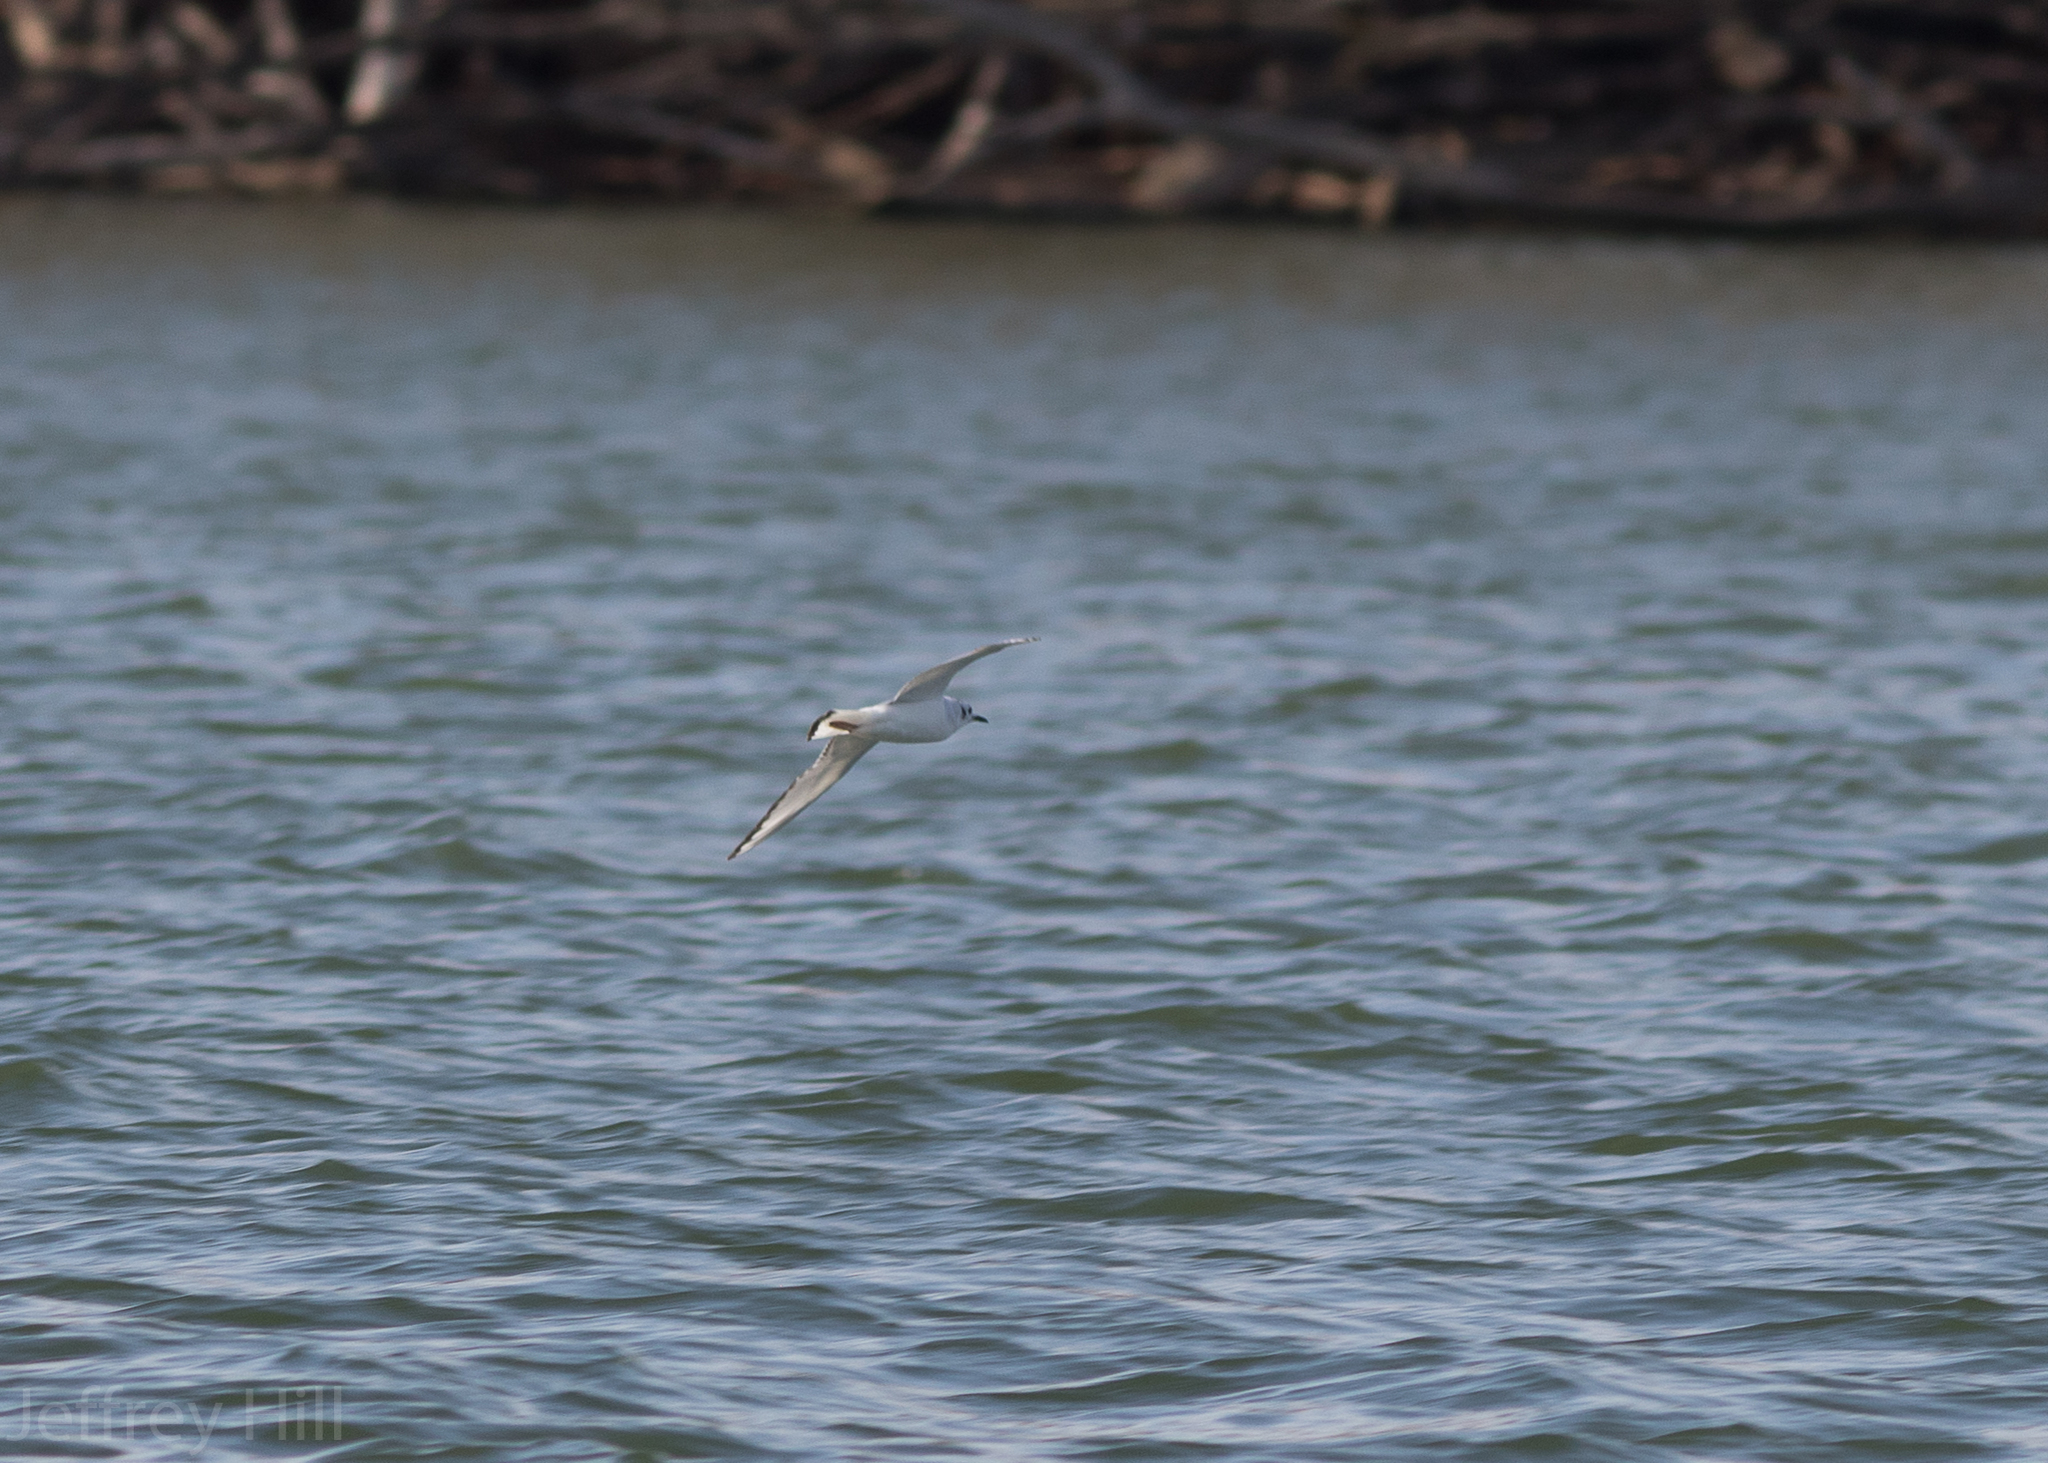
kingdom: Animalia
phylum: Chordata
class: Aves
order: Charadriiformes
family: Laridae
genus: Chroicocephalus
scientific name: Chroicocephalus philadelphia
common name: Bonaparte's gull
